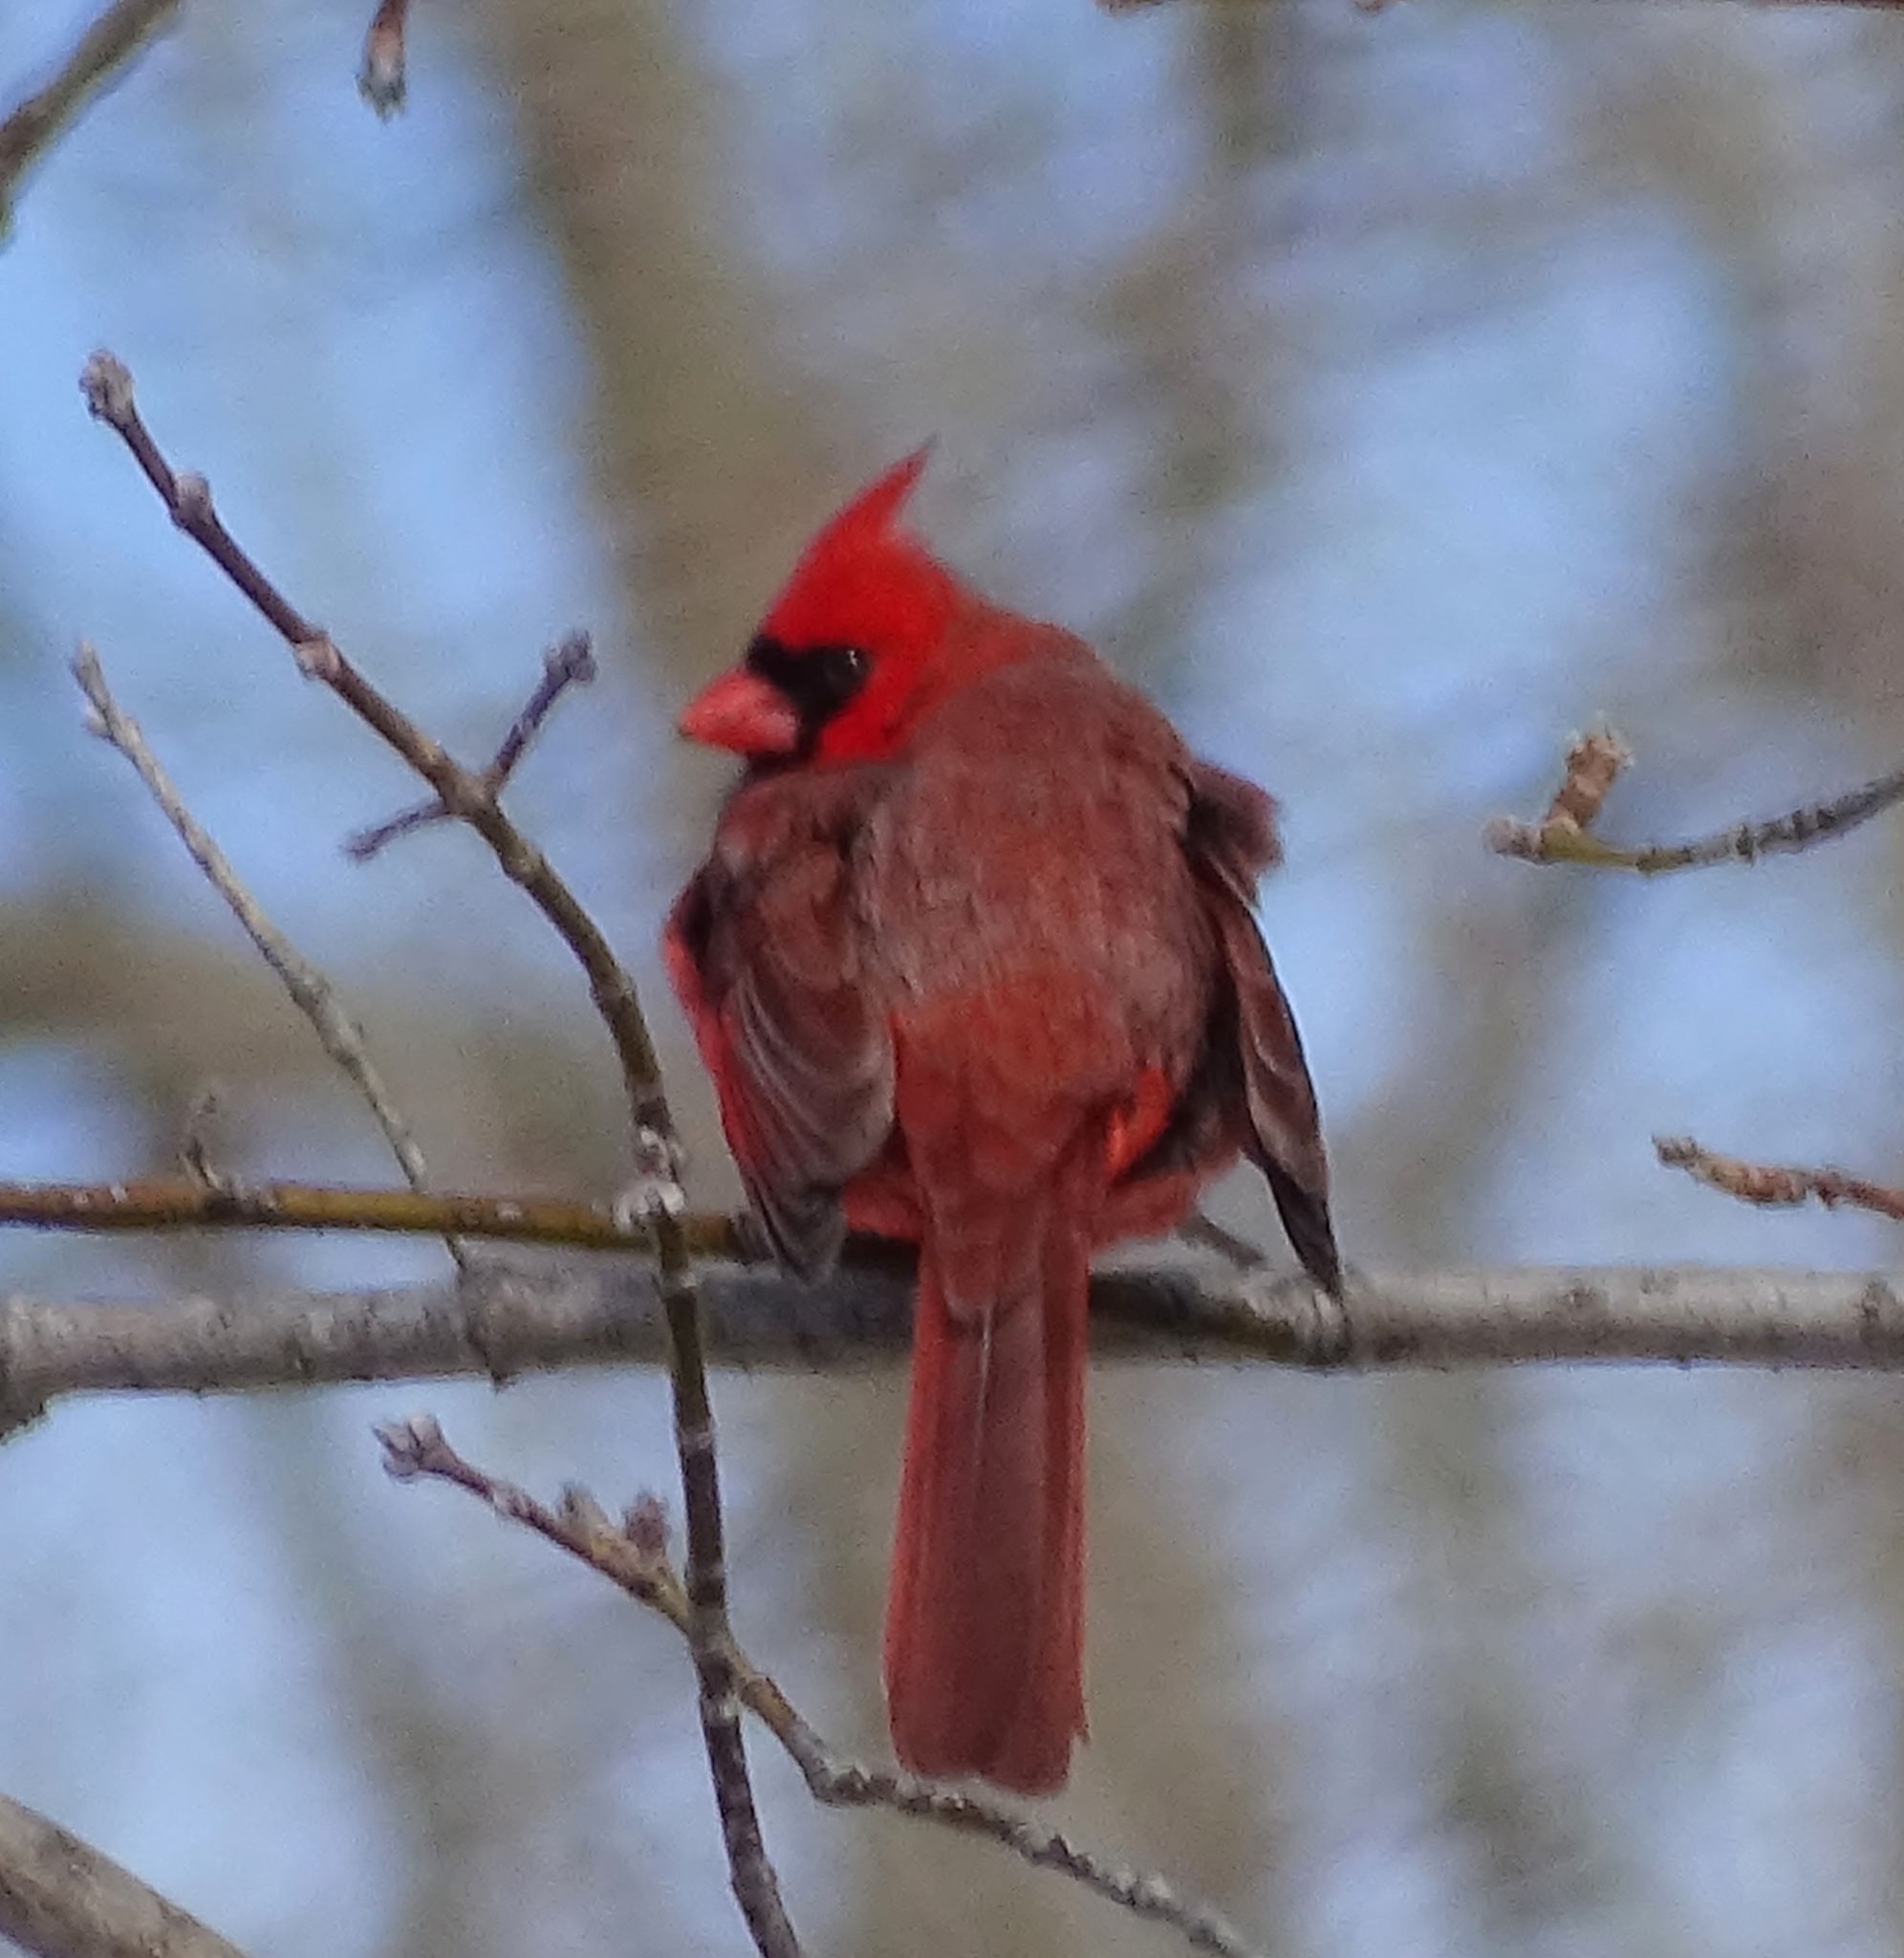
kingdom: Animalia
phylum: Chordata
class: Aves
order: Passeriformes
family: Cardinalidae
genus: Cardinalis
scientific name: Cardinalis cardinalis
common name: Northern cardinal
